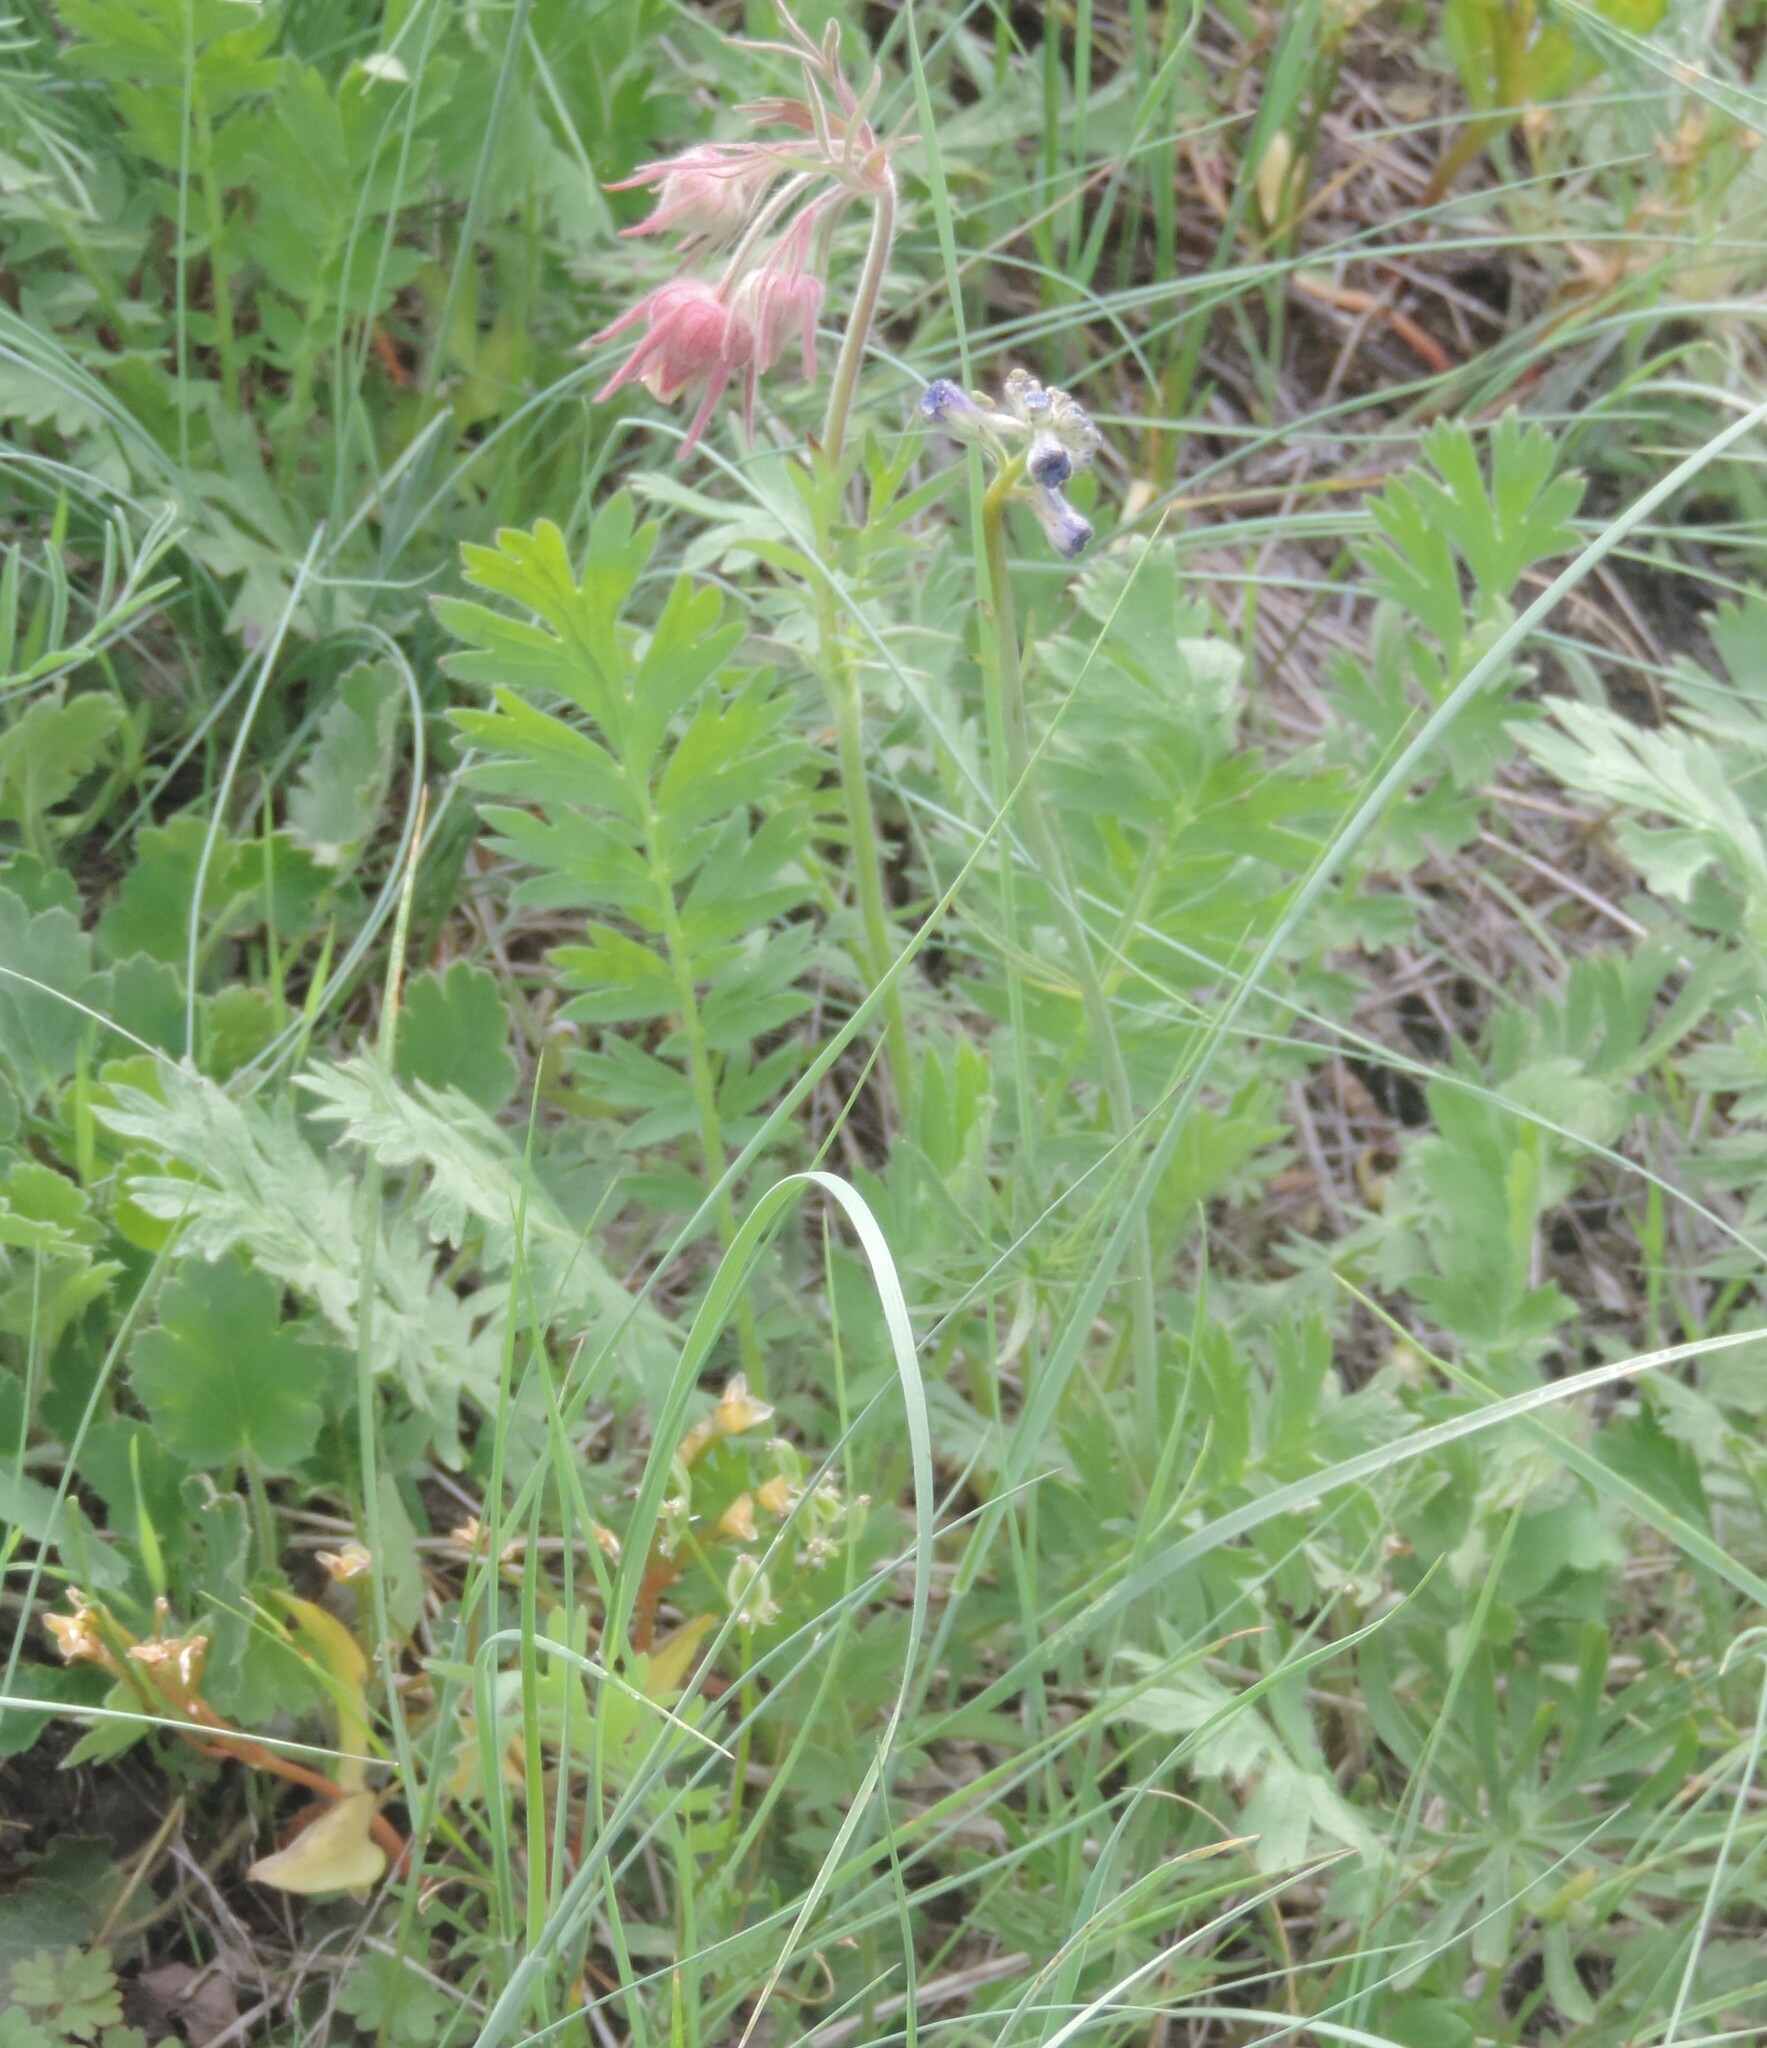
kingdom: Plantae
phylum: Tracheophyta
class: Magnoliopsida
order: Rosales
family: Rosaceae
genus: Geum
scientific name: Geum triflorum
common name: Old man's whiskers
